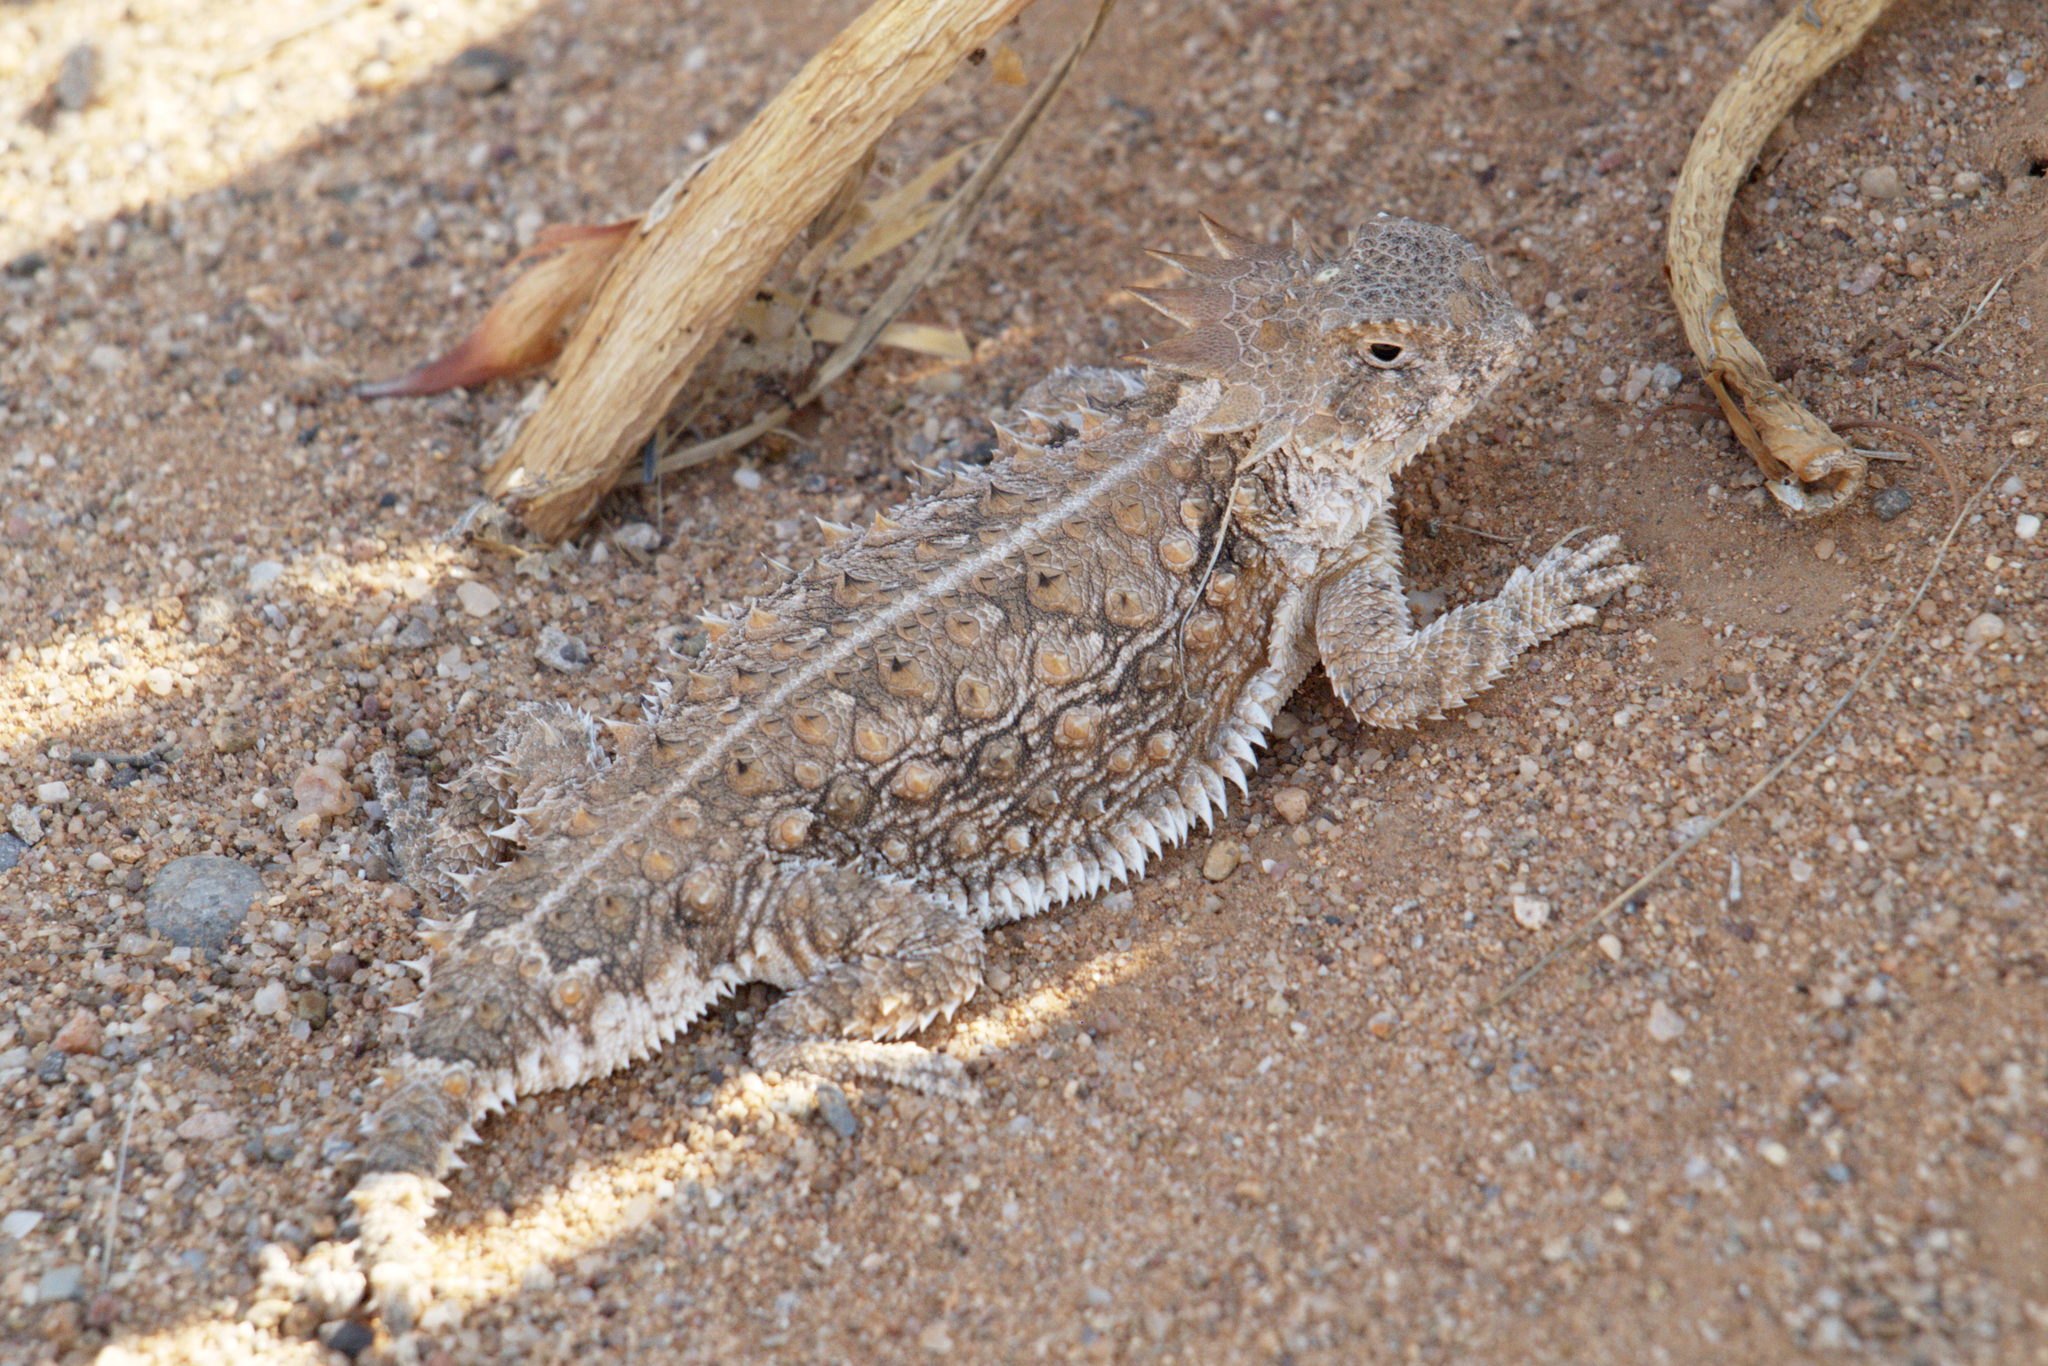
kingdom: Animalia
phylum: Chordata
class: Squamata
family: Phrynosomatidae
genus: Phrynosoma
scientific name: Phrynosoma solare
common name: Regal horned lizard
